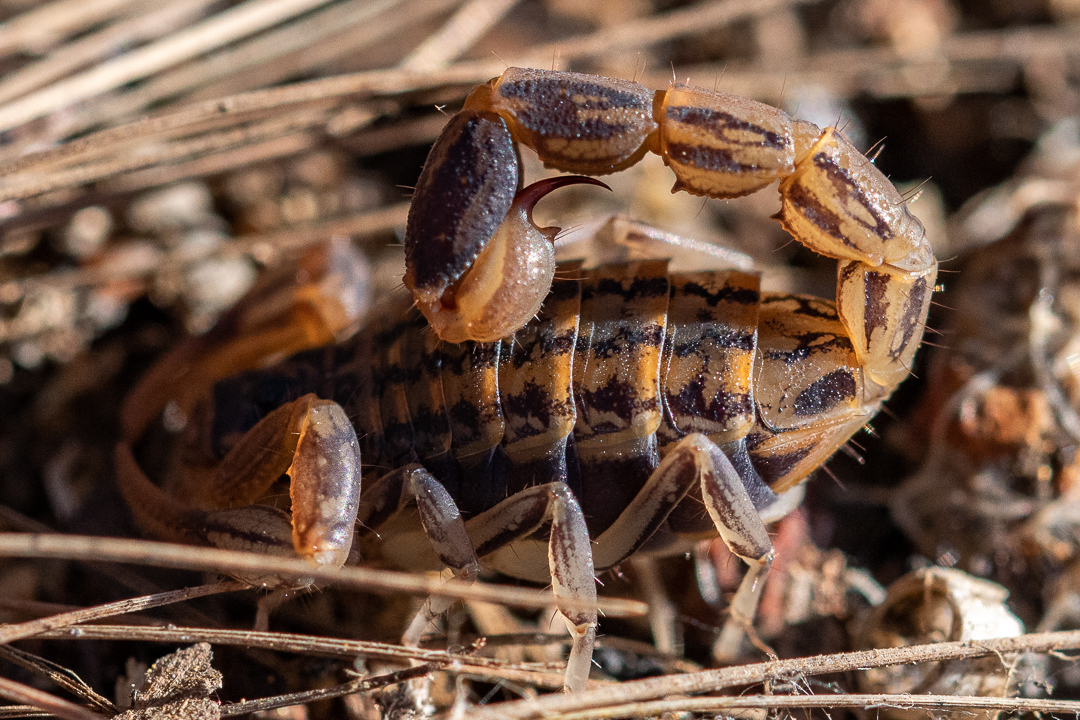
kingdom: Animalia
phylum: Arthropoda
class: Arachnida
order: Scorpiones
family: Buthidae
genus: Uroplectes
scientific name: Uroplectes lineatus
